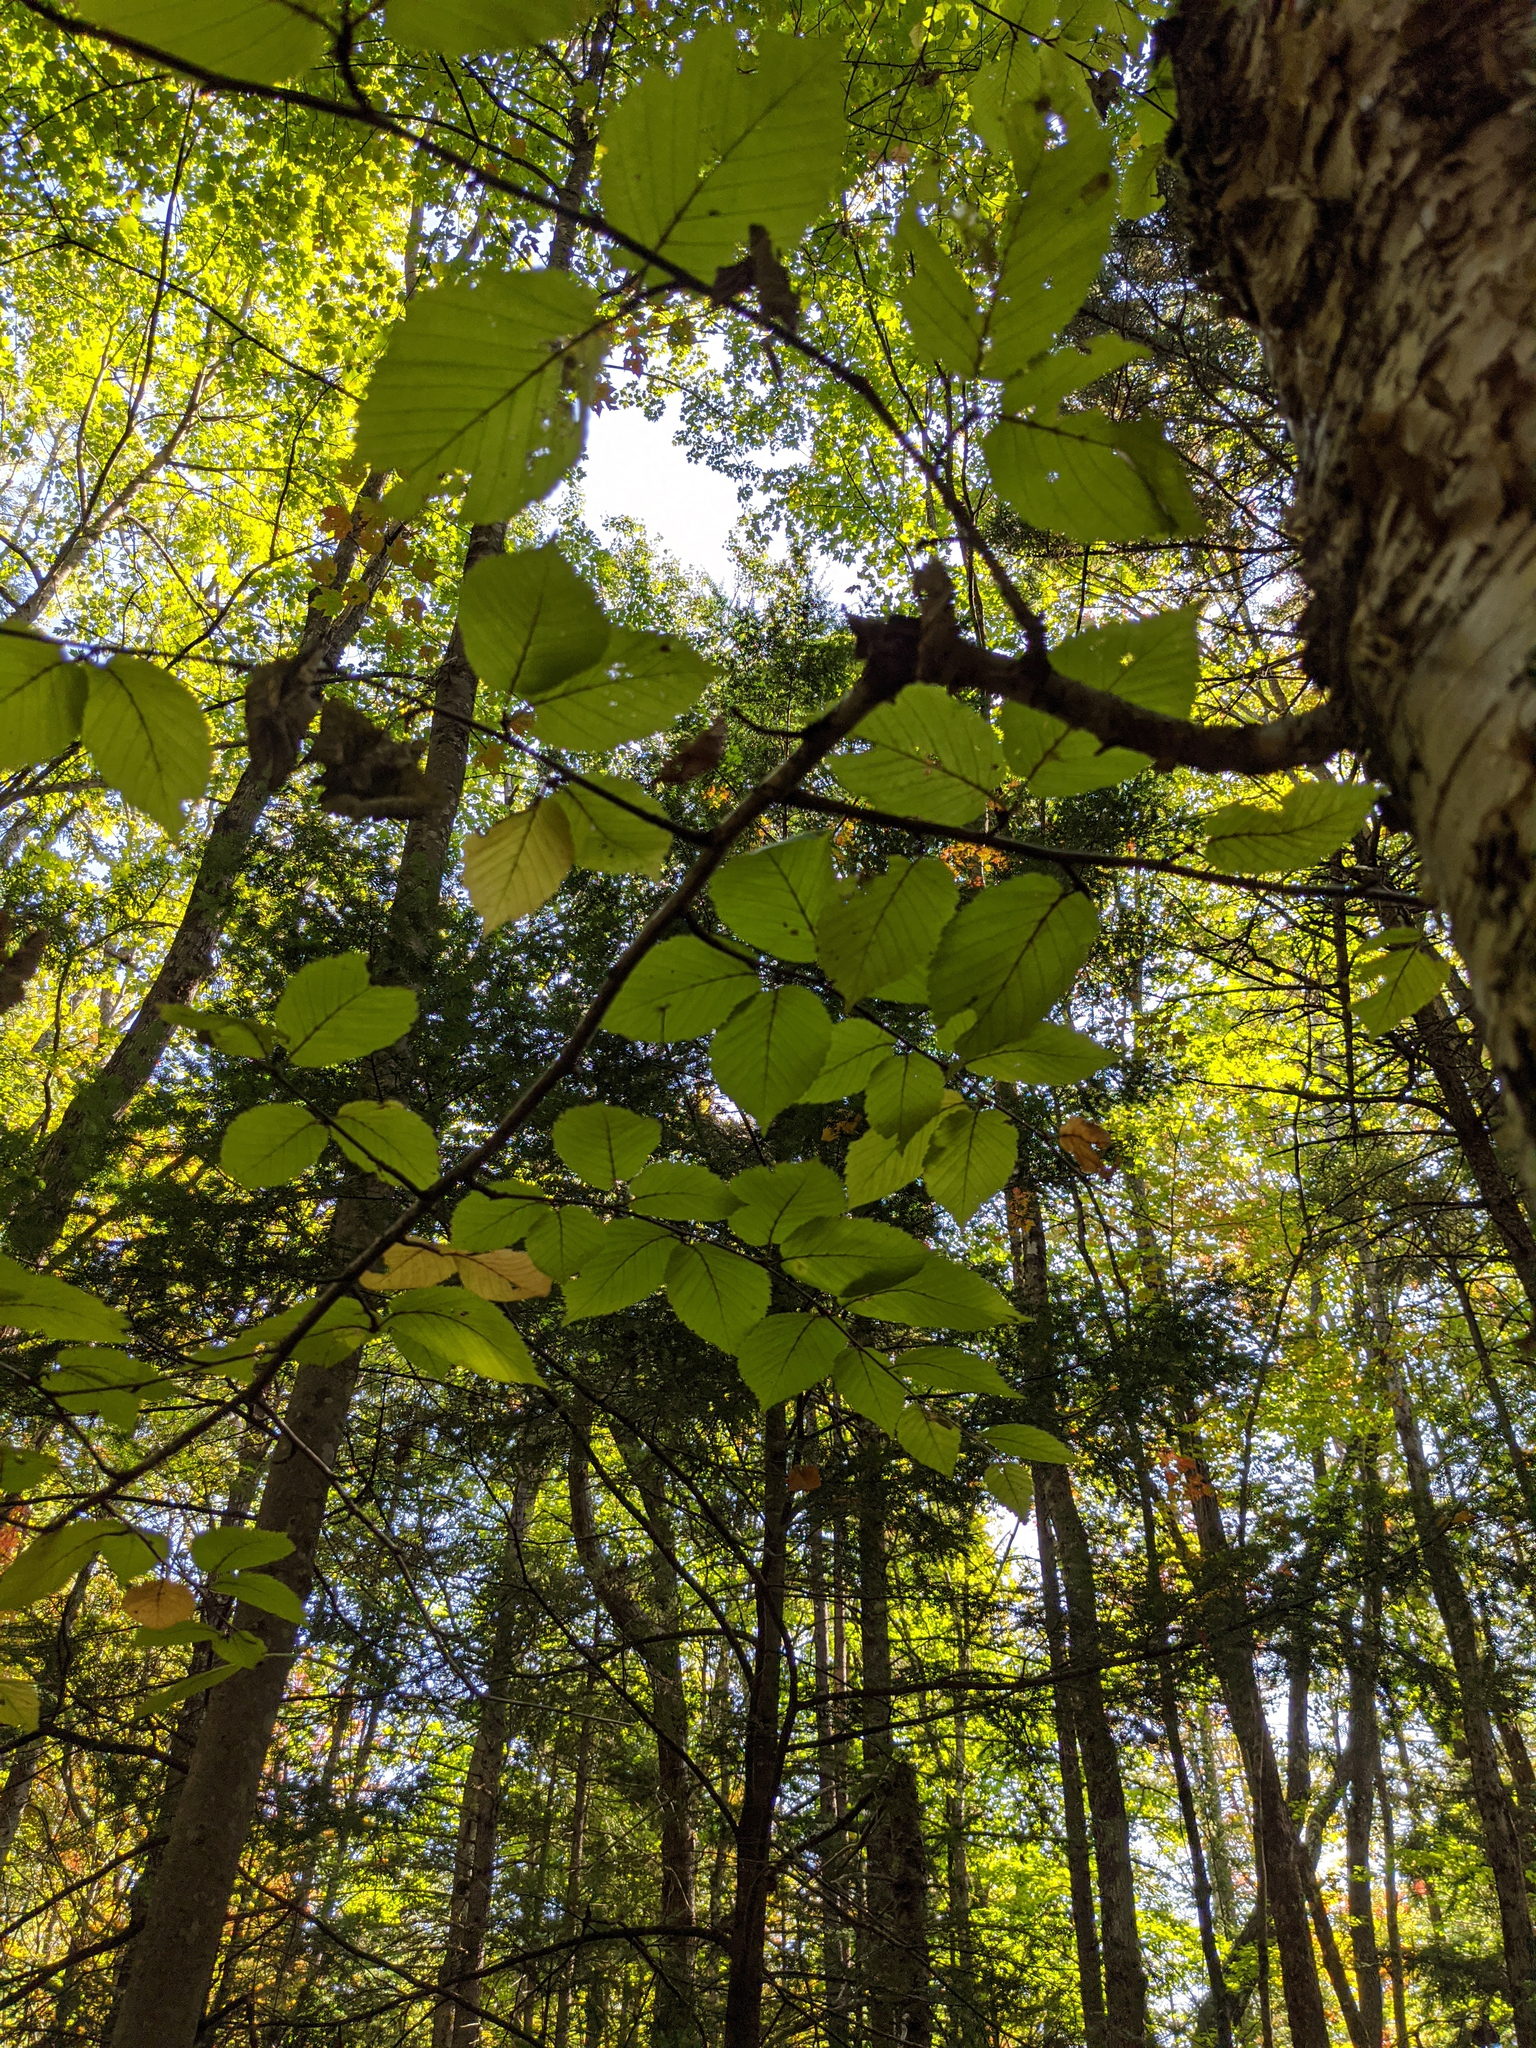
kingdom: Plantae
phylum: Tracheophyta
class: Magnoliopsida
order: Fagales
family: Betulaceae
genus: Betula
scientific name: Betula alleghaniensis
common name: Yellow birch
